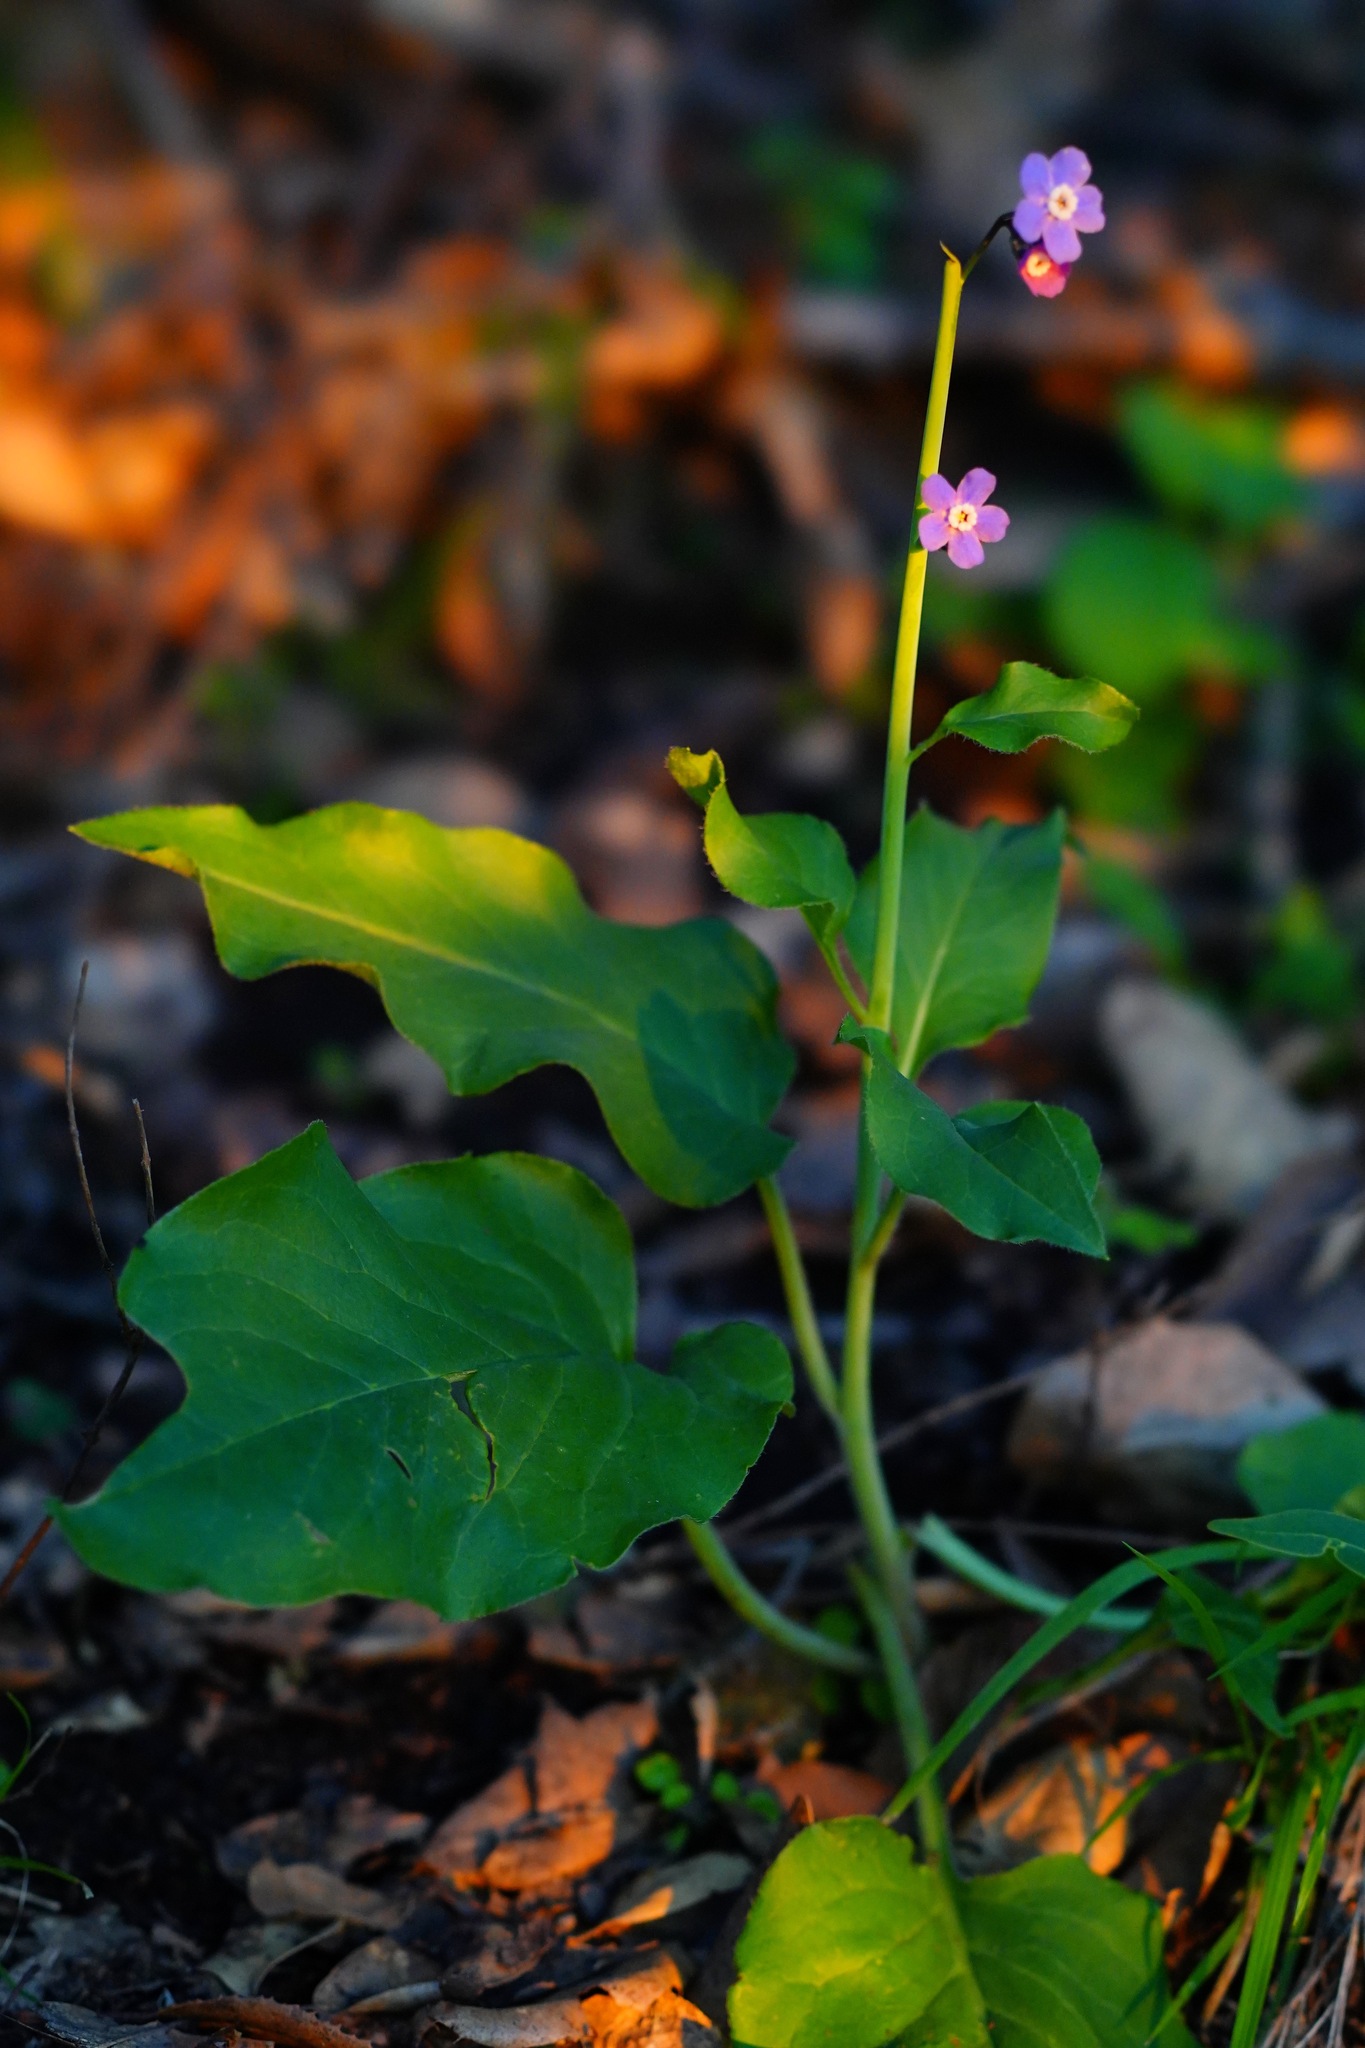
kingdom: Plantae
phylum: Tracheophyta
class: Magnoliopsida
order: Boraginales
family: Boraginaceae
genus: Adelinia
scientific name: Adelinia grande
